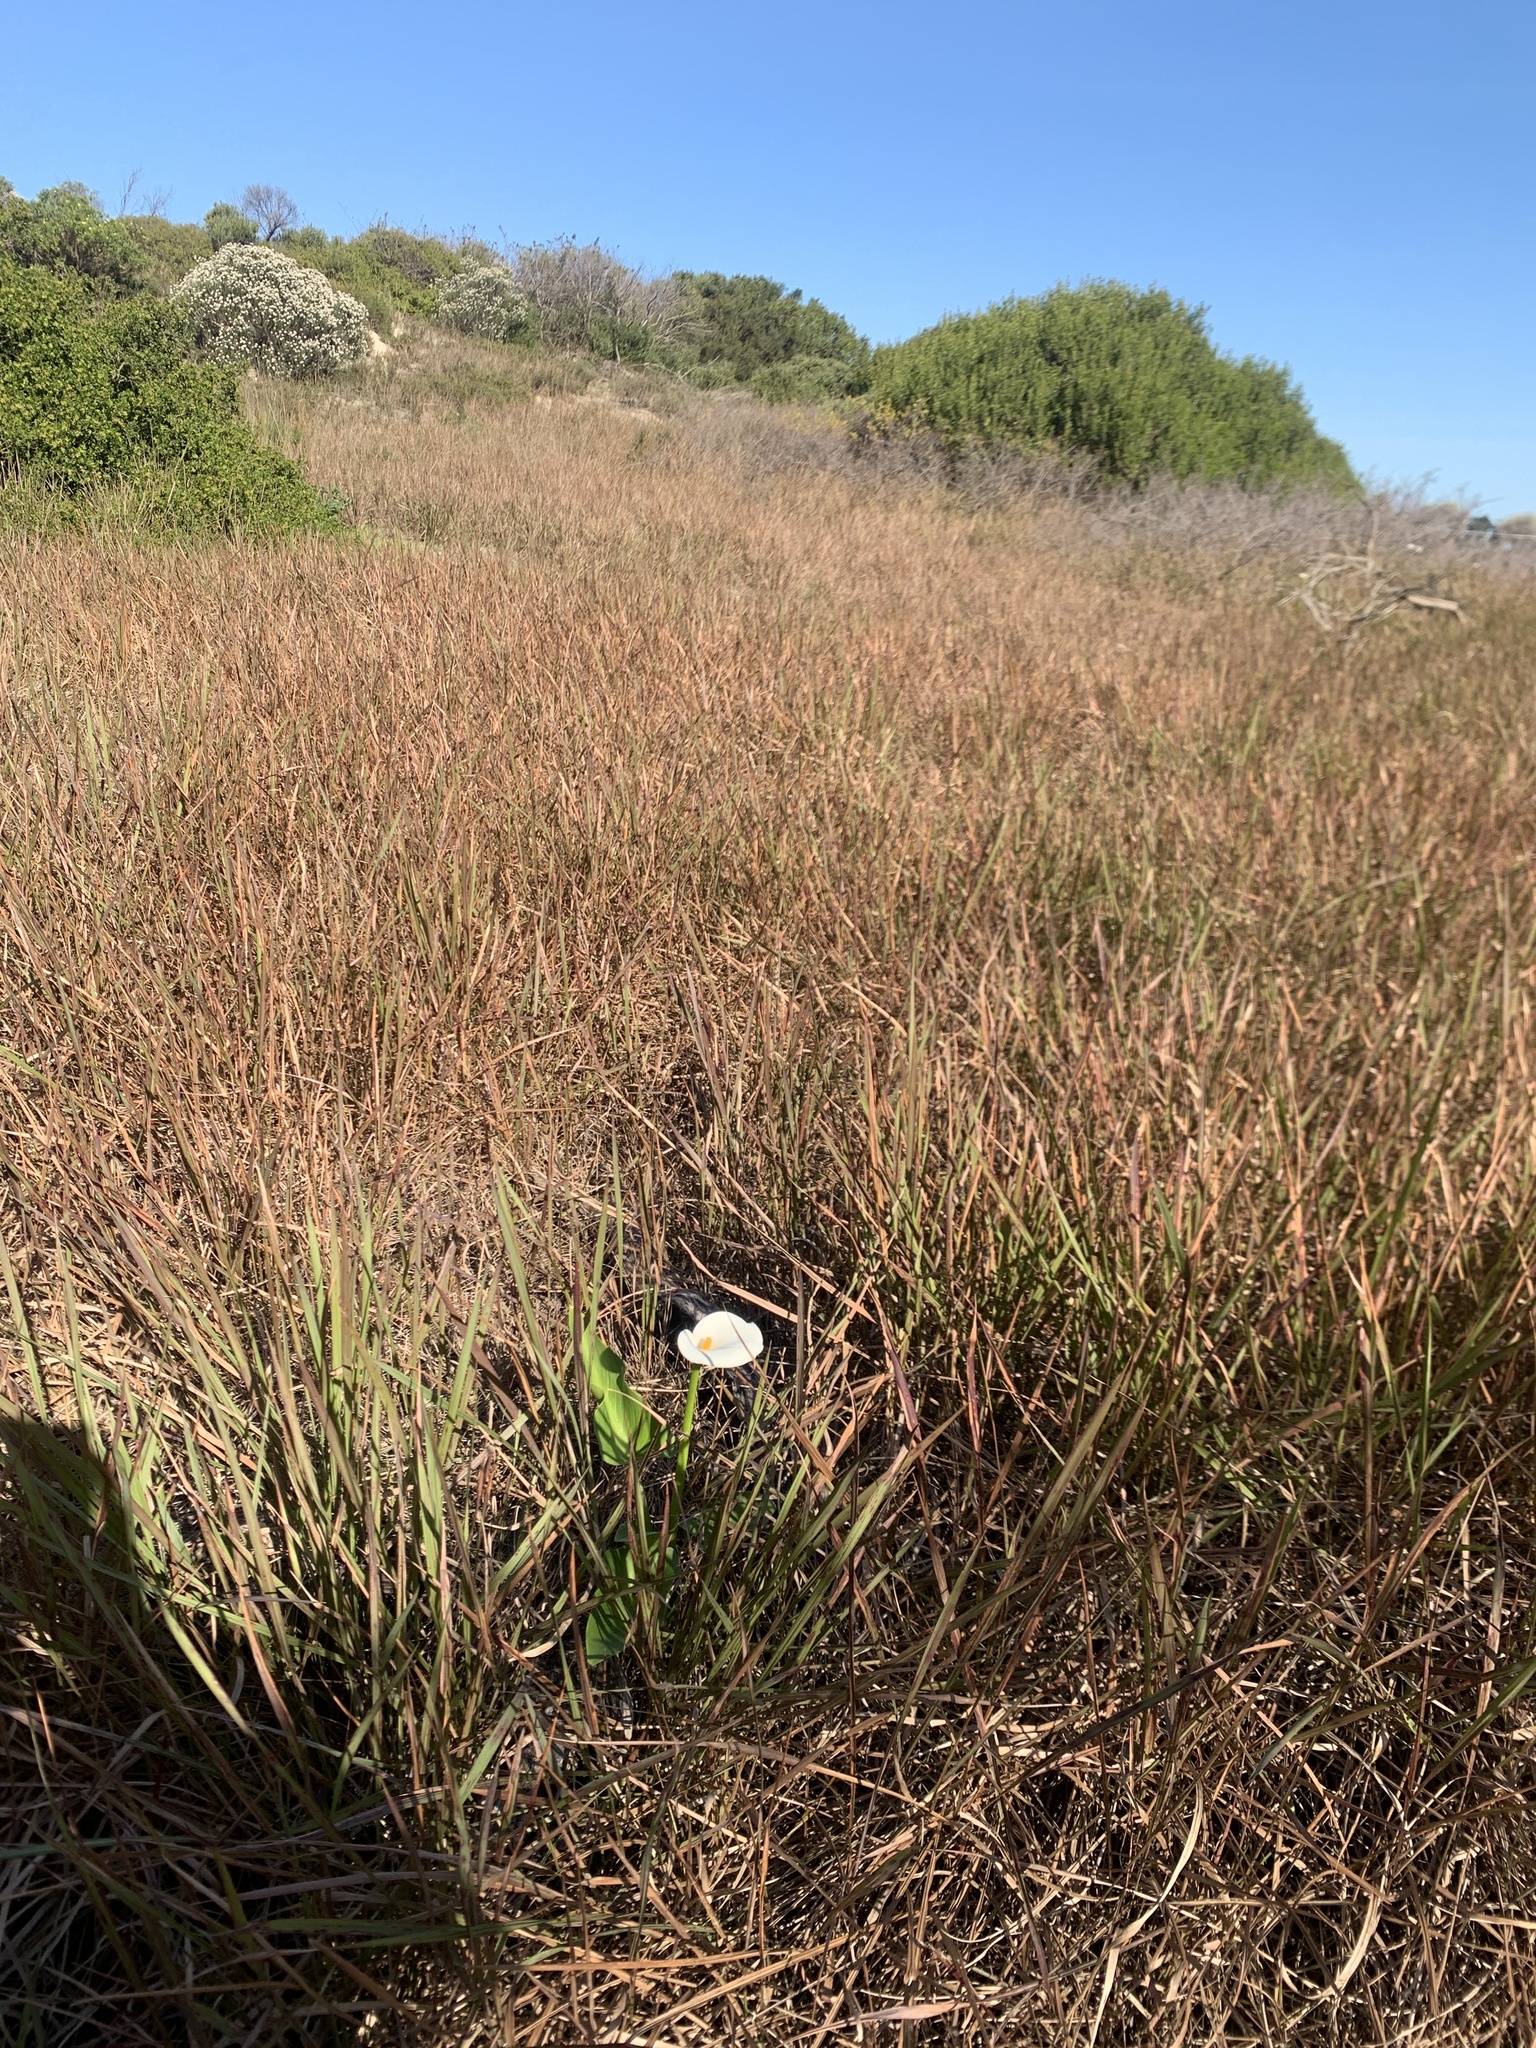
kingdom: Plantae
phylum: Tracheophyta
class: Liliopsida
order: Alismatales
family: Araceae
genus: Zantedeschia
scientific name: Zantedeschia aethiopica
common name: Altar-lily
